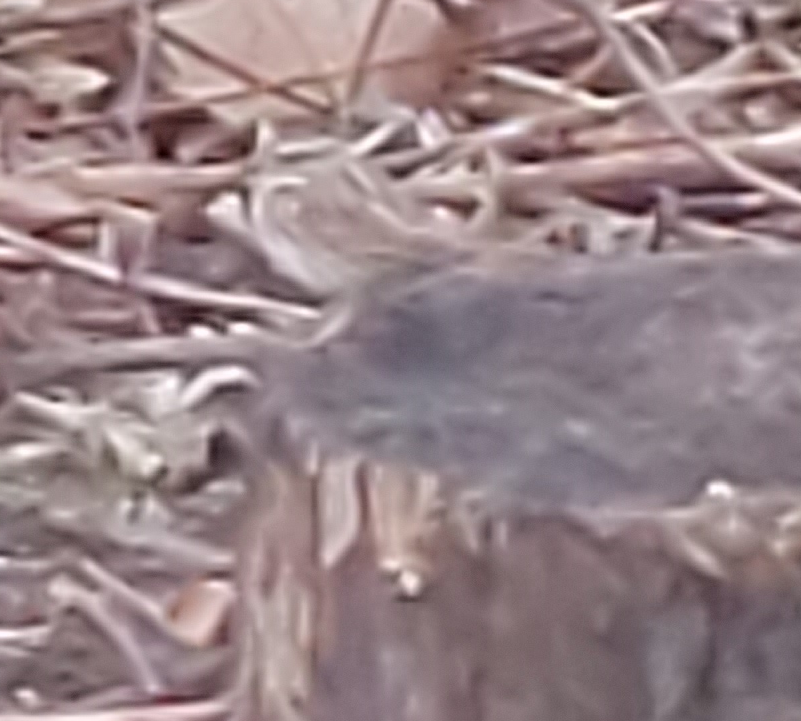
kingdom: Animalia
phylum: Chordata
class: Aves
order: Passeriformes
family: Passerellidae
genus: Melospiza
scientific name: Melospiza melodia
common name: Song sparrow
